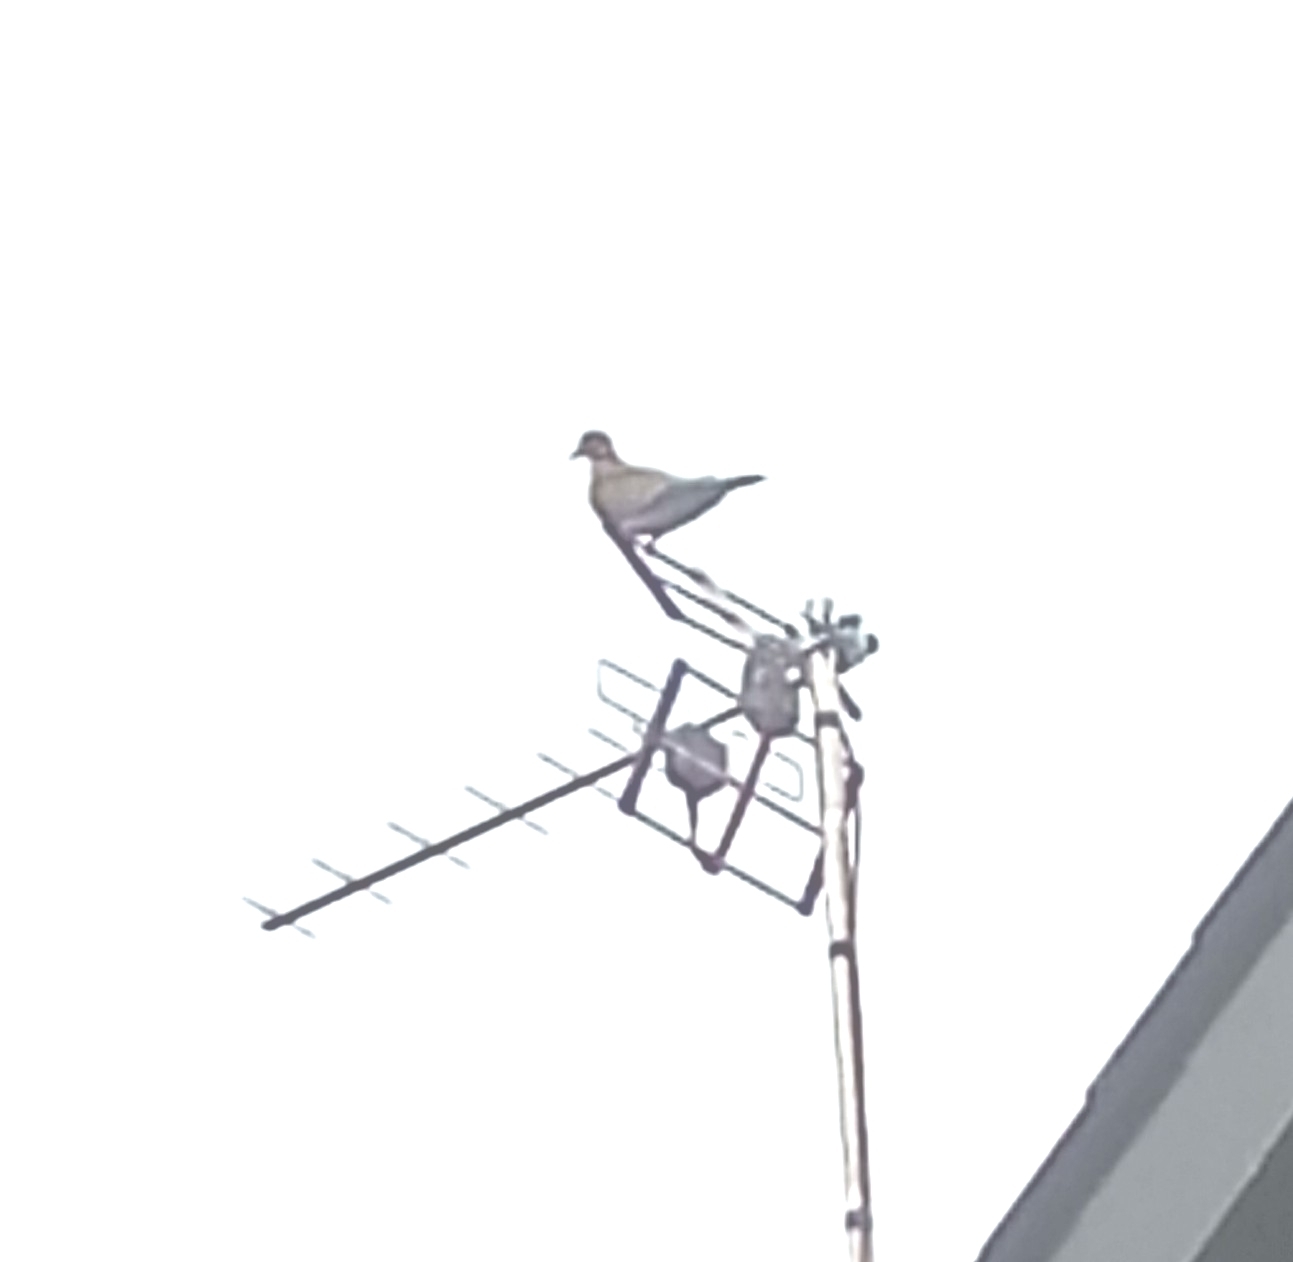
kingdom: Animalia
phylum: Chordata
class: Aves
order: Columbiformes
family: Columbidae
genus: Streptopelia
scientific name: Streptopelia decaocto
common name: Eurasian collared dove
